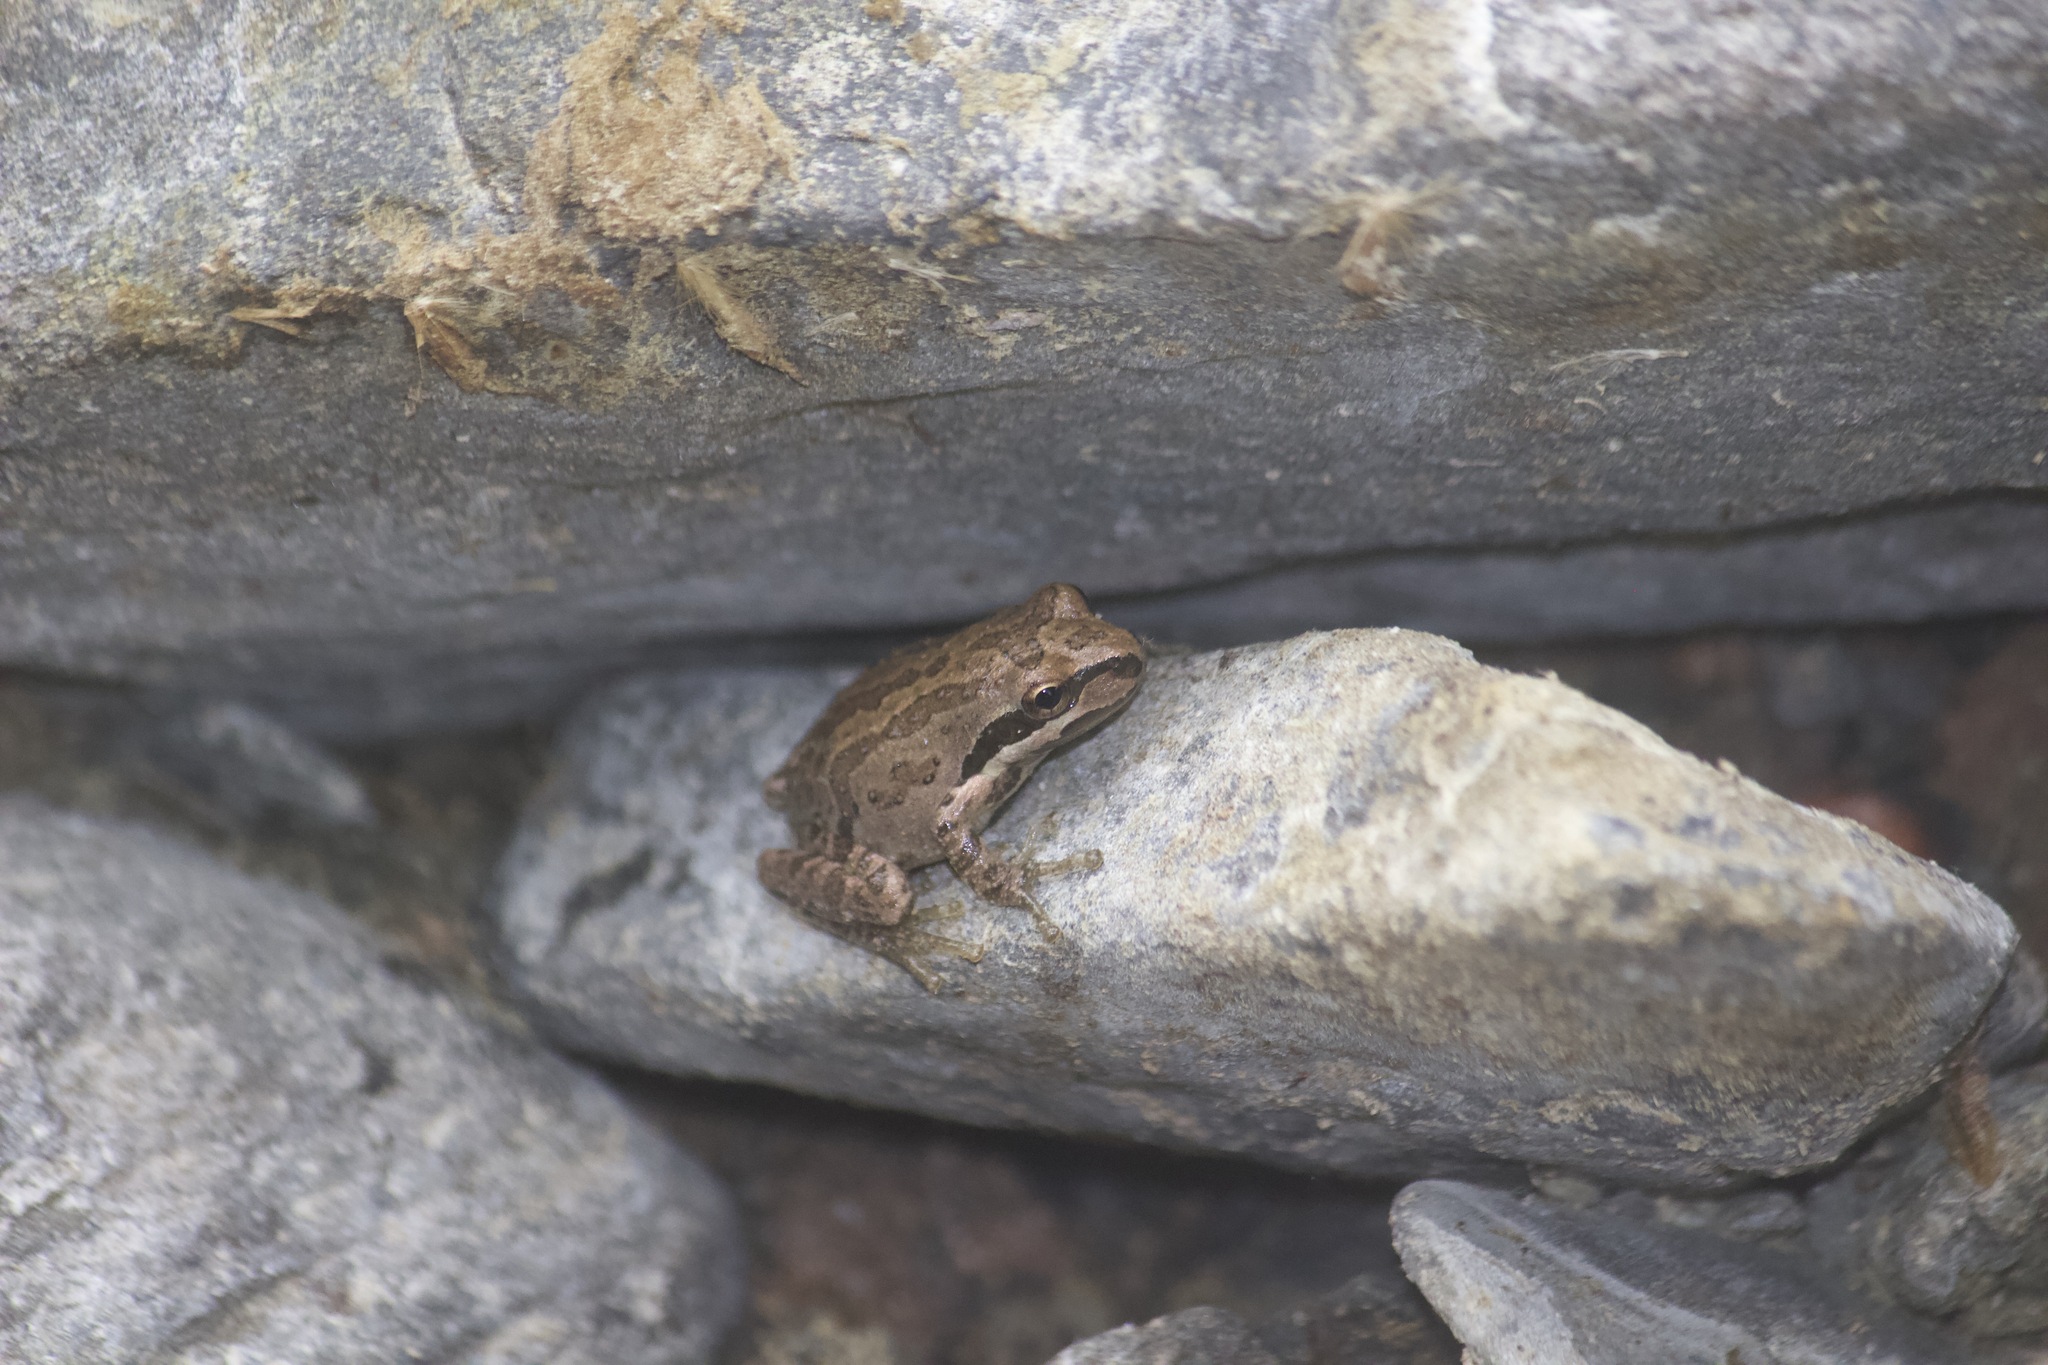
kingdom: Animalia
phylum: Chordata
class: Amphibia
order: Anura
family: Hylidae
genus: Pseudacris
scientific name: Pseudacris regilla
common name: Pacific chorus frog
